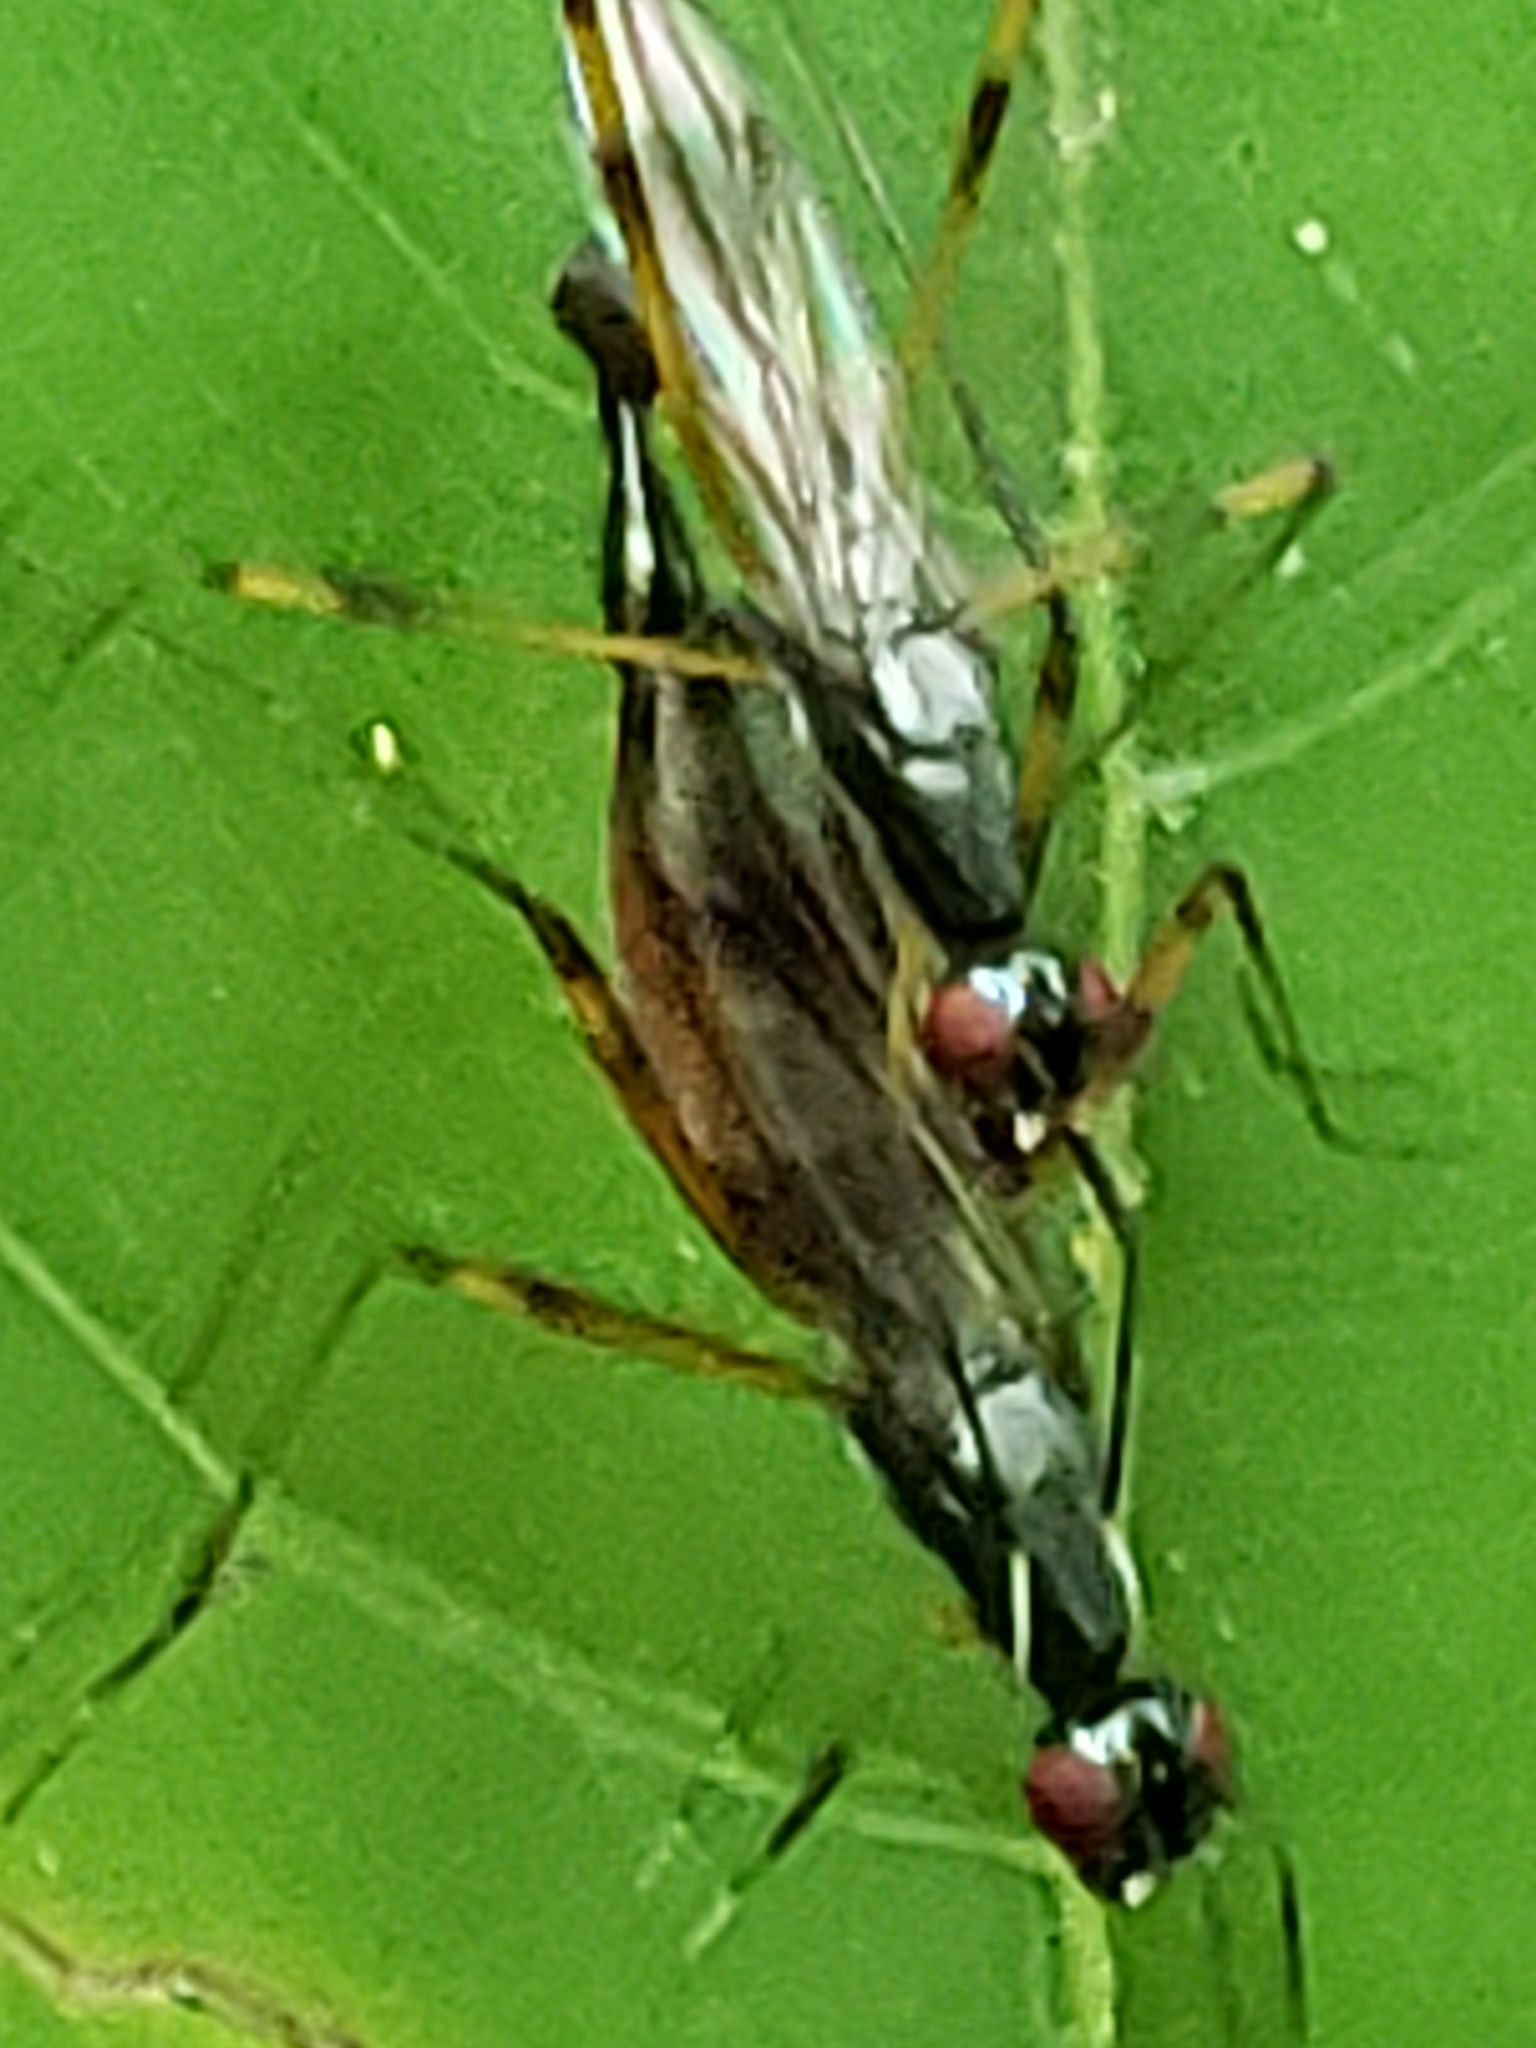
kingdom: Animalia
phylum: Arthropoda
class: Insecta
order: Diptera
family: Micropezidae
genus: Rainieria
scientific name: Rainieria antennaepes
